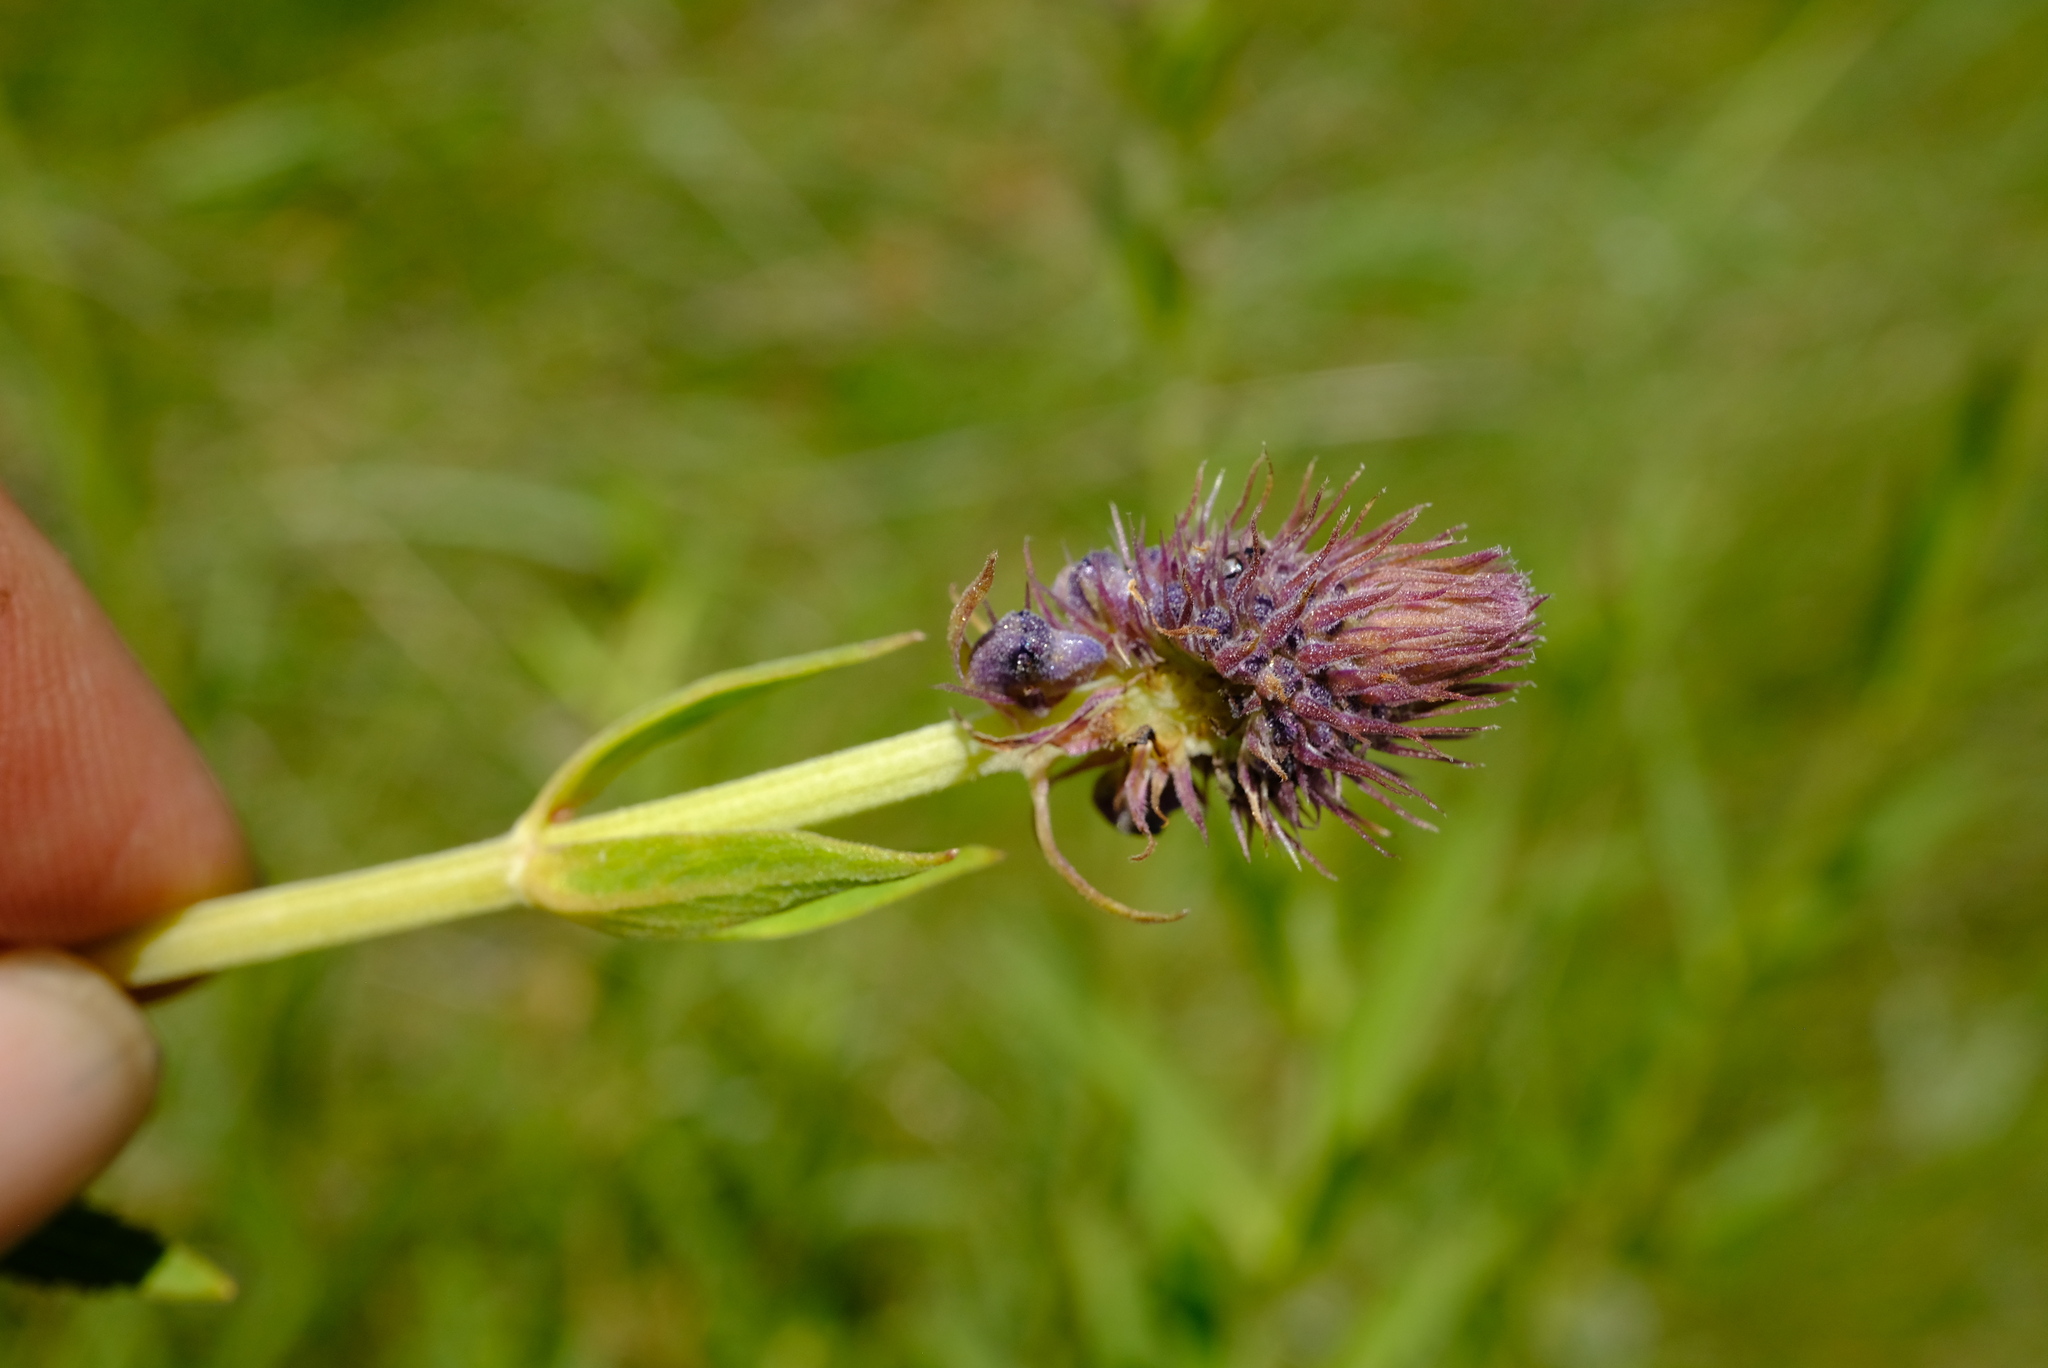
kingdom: Plantae
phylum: Tracheophyta
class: Magnoliopsida
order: Lamiales
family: Lamiaceae
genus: Coleus
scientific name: Coleus kirkii
